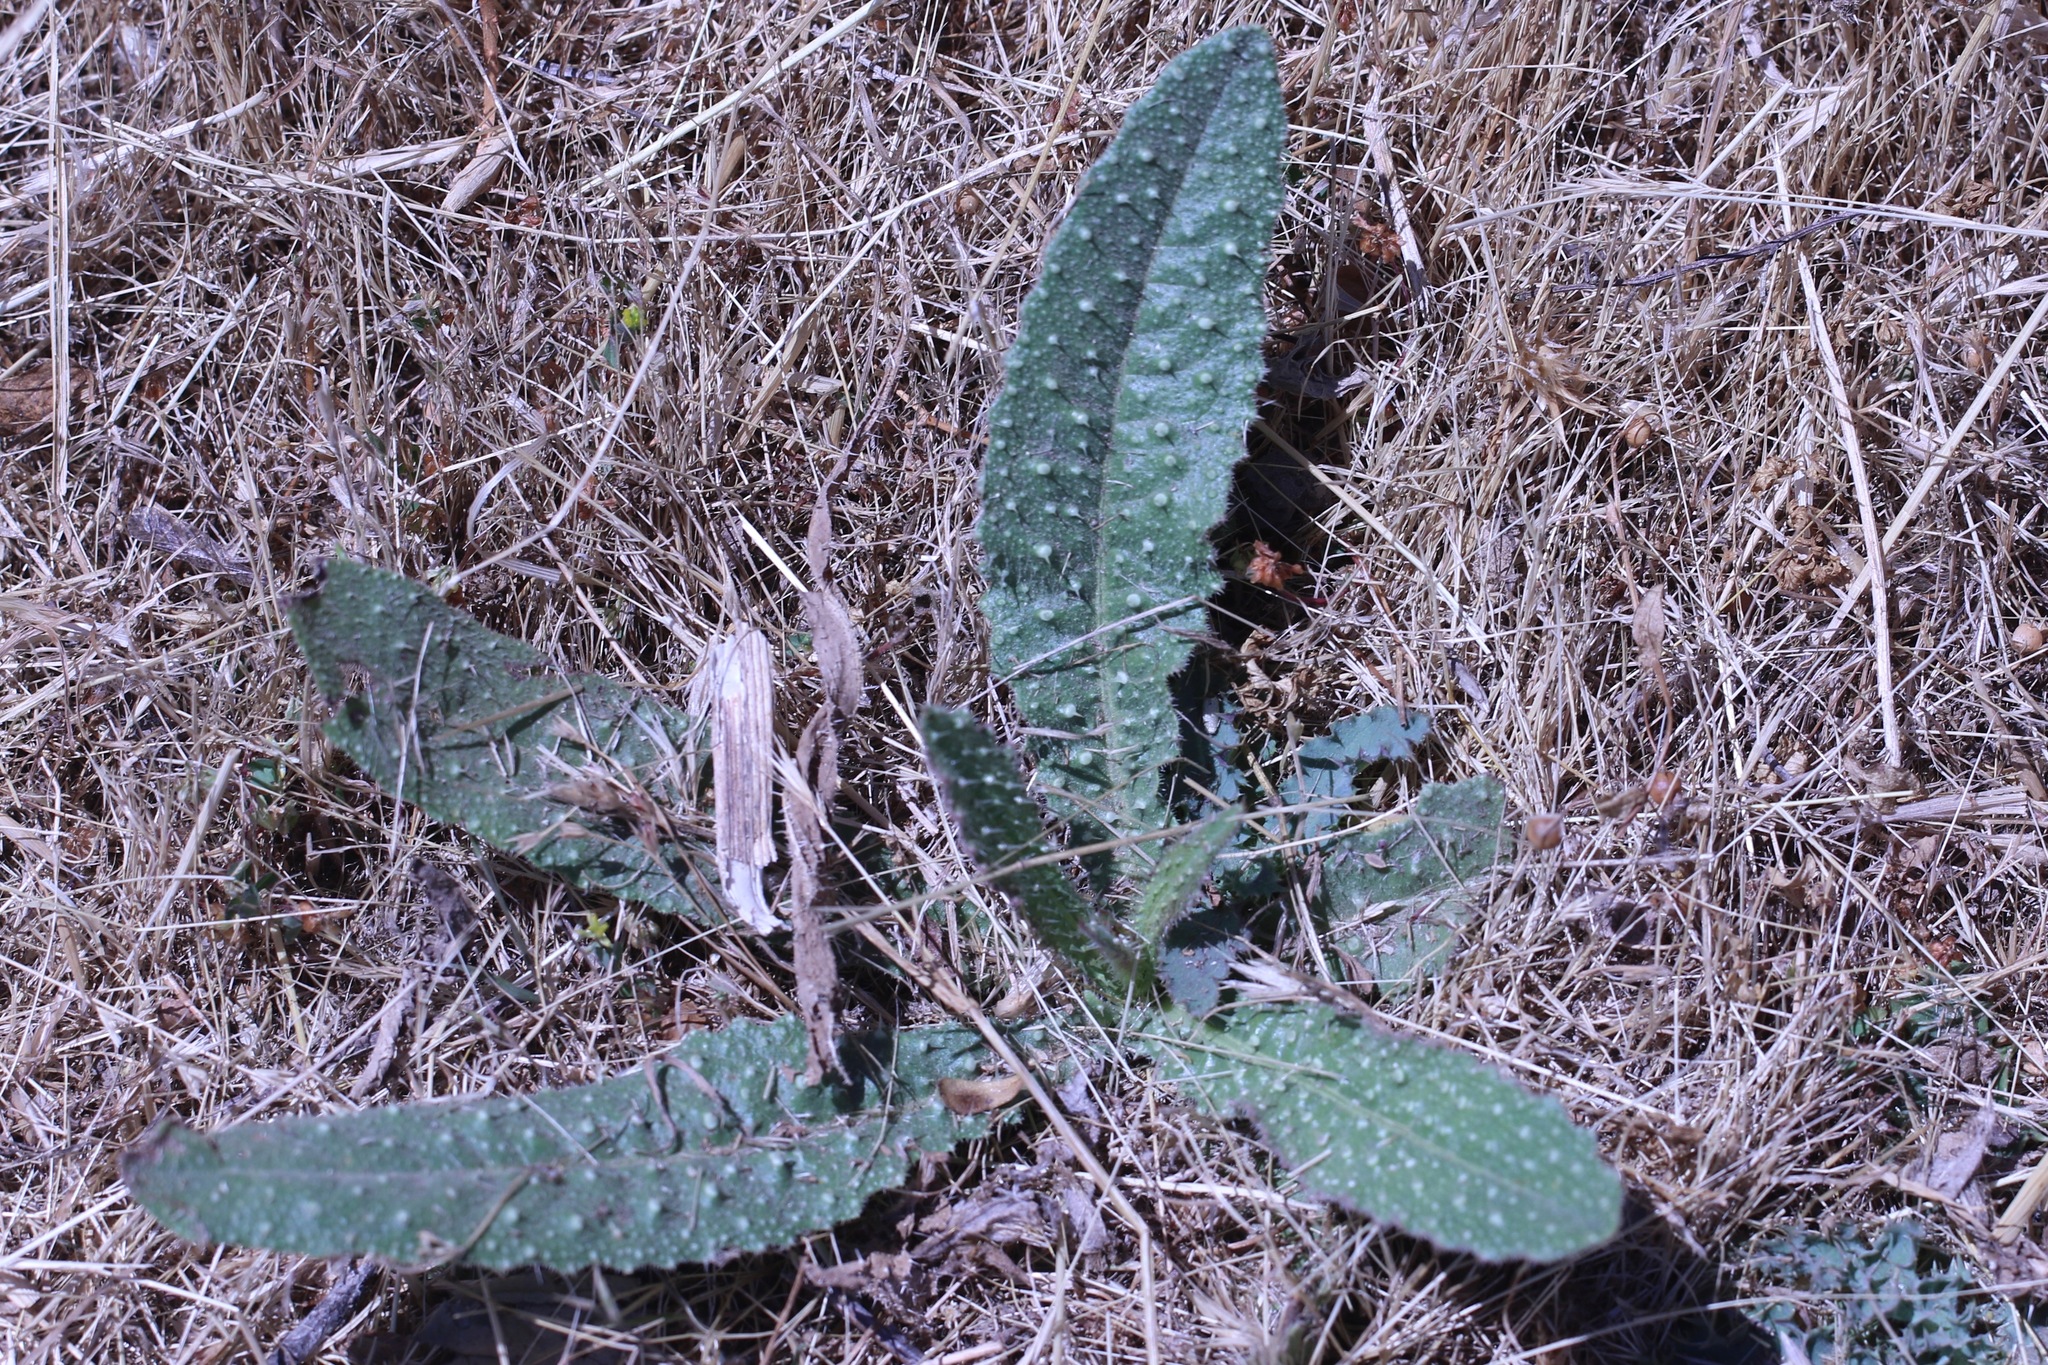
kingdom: Plantae
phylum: Tracheophyta
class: Magnoliopsida
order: Asterales
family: Asteraceae
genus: Helminthotheca
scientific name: Helminthotheca echioides
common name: Ox-tongue
